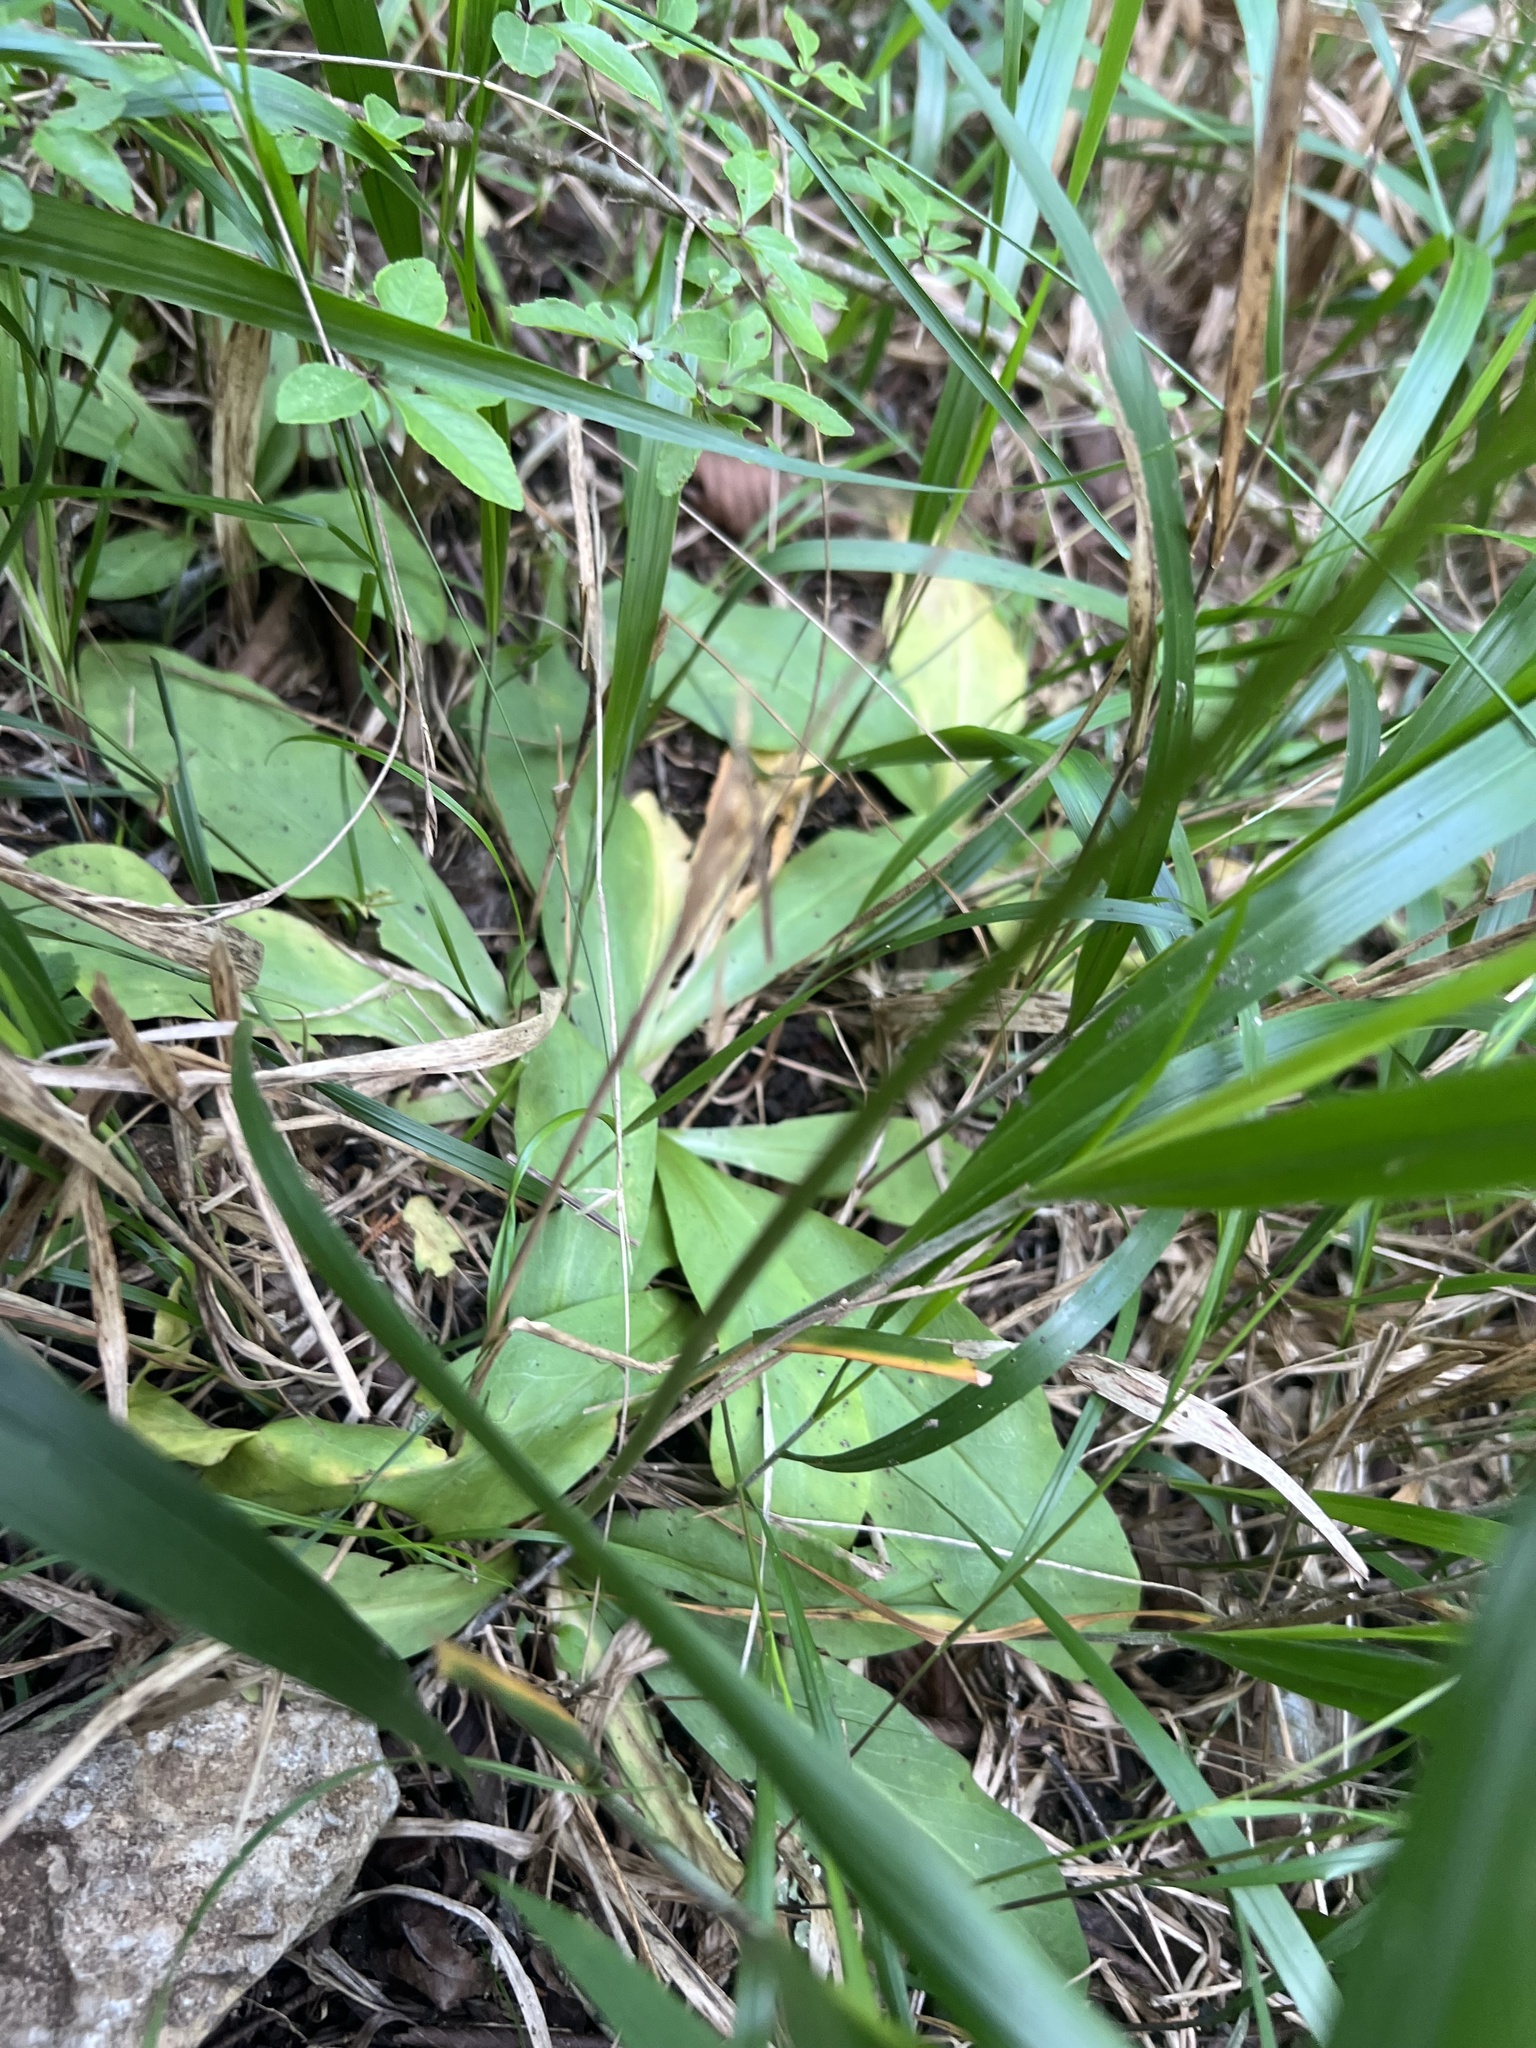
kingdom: Plantae
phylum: Tracheophyta
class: Magnoliopsida
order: Ericales
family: Primulaceae
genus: Dodecatheon
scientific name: Dodecatheon meadia
